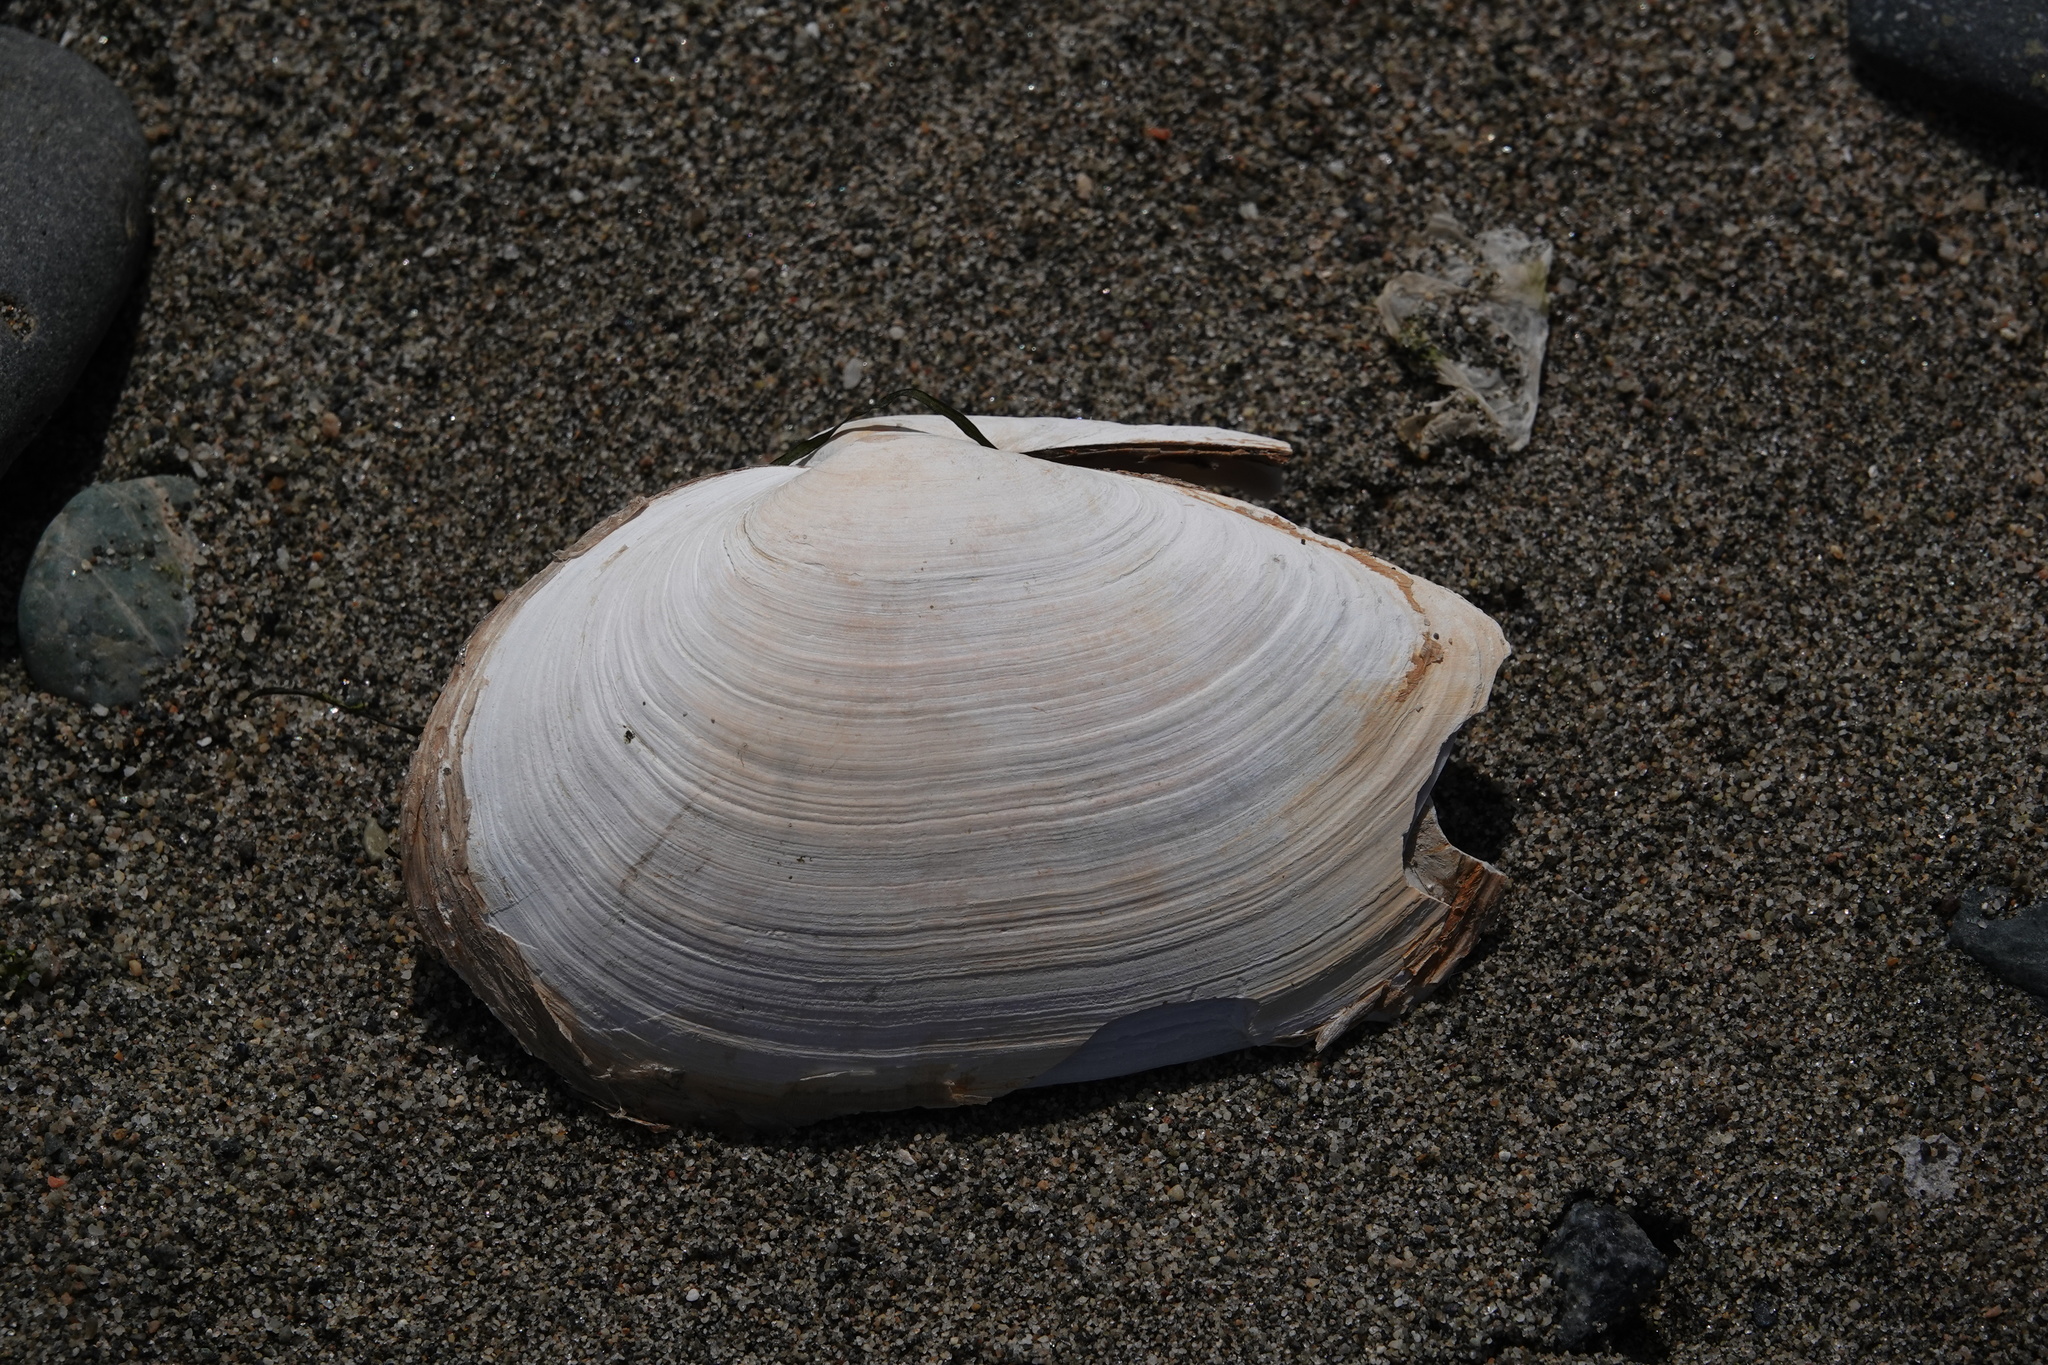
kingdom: Animalia
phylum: Mollusca
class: Bivalvia
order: Myida
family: Myidae
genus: Mya
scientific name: Mya arenaria
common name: Soft-shelled clam
